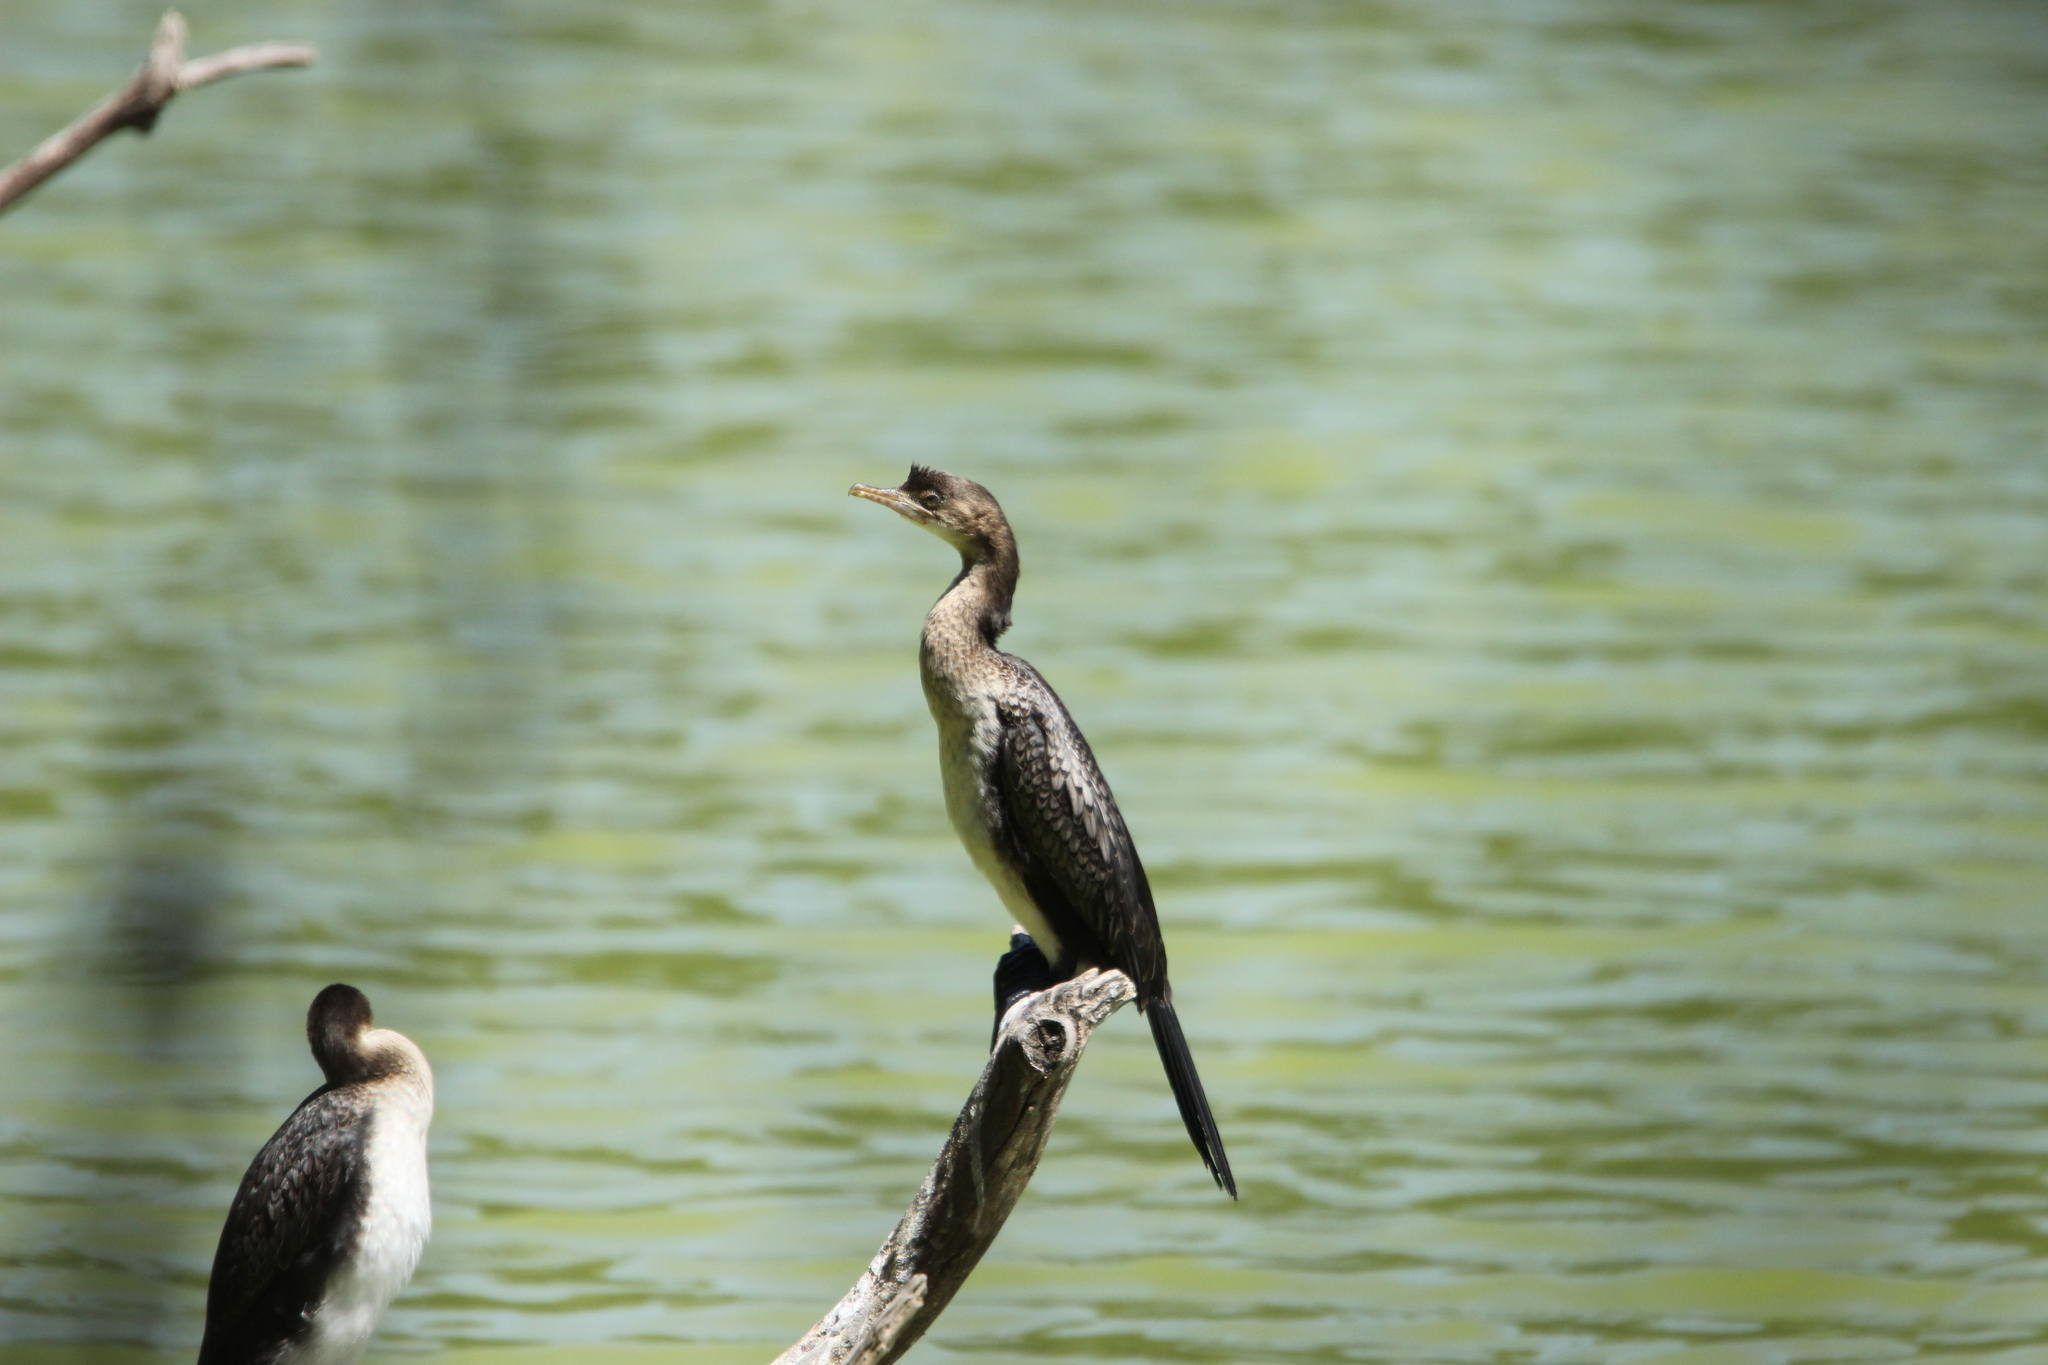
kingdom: Animalia
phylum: Chordata
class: Aves
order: Suliformes
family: Phalacrocoracidae
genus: Microcarbo
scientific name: Microcarbo africanus
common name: Long-tailed cormorant
